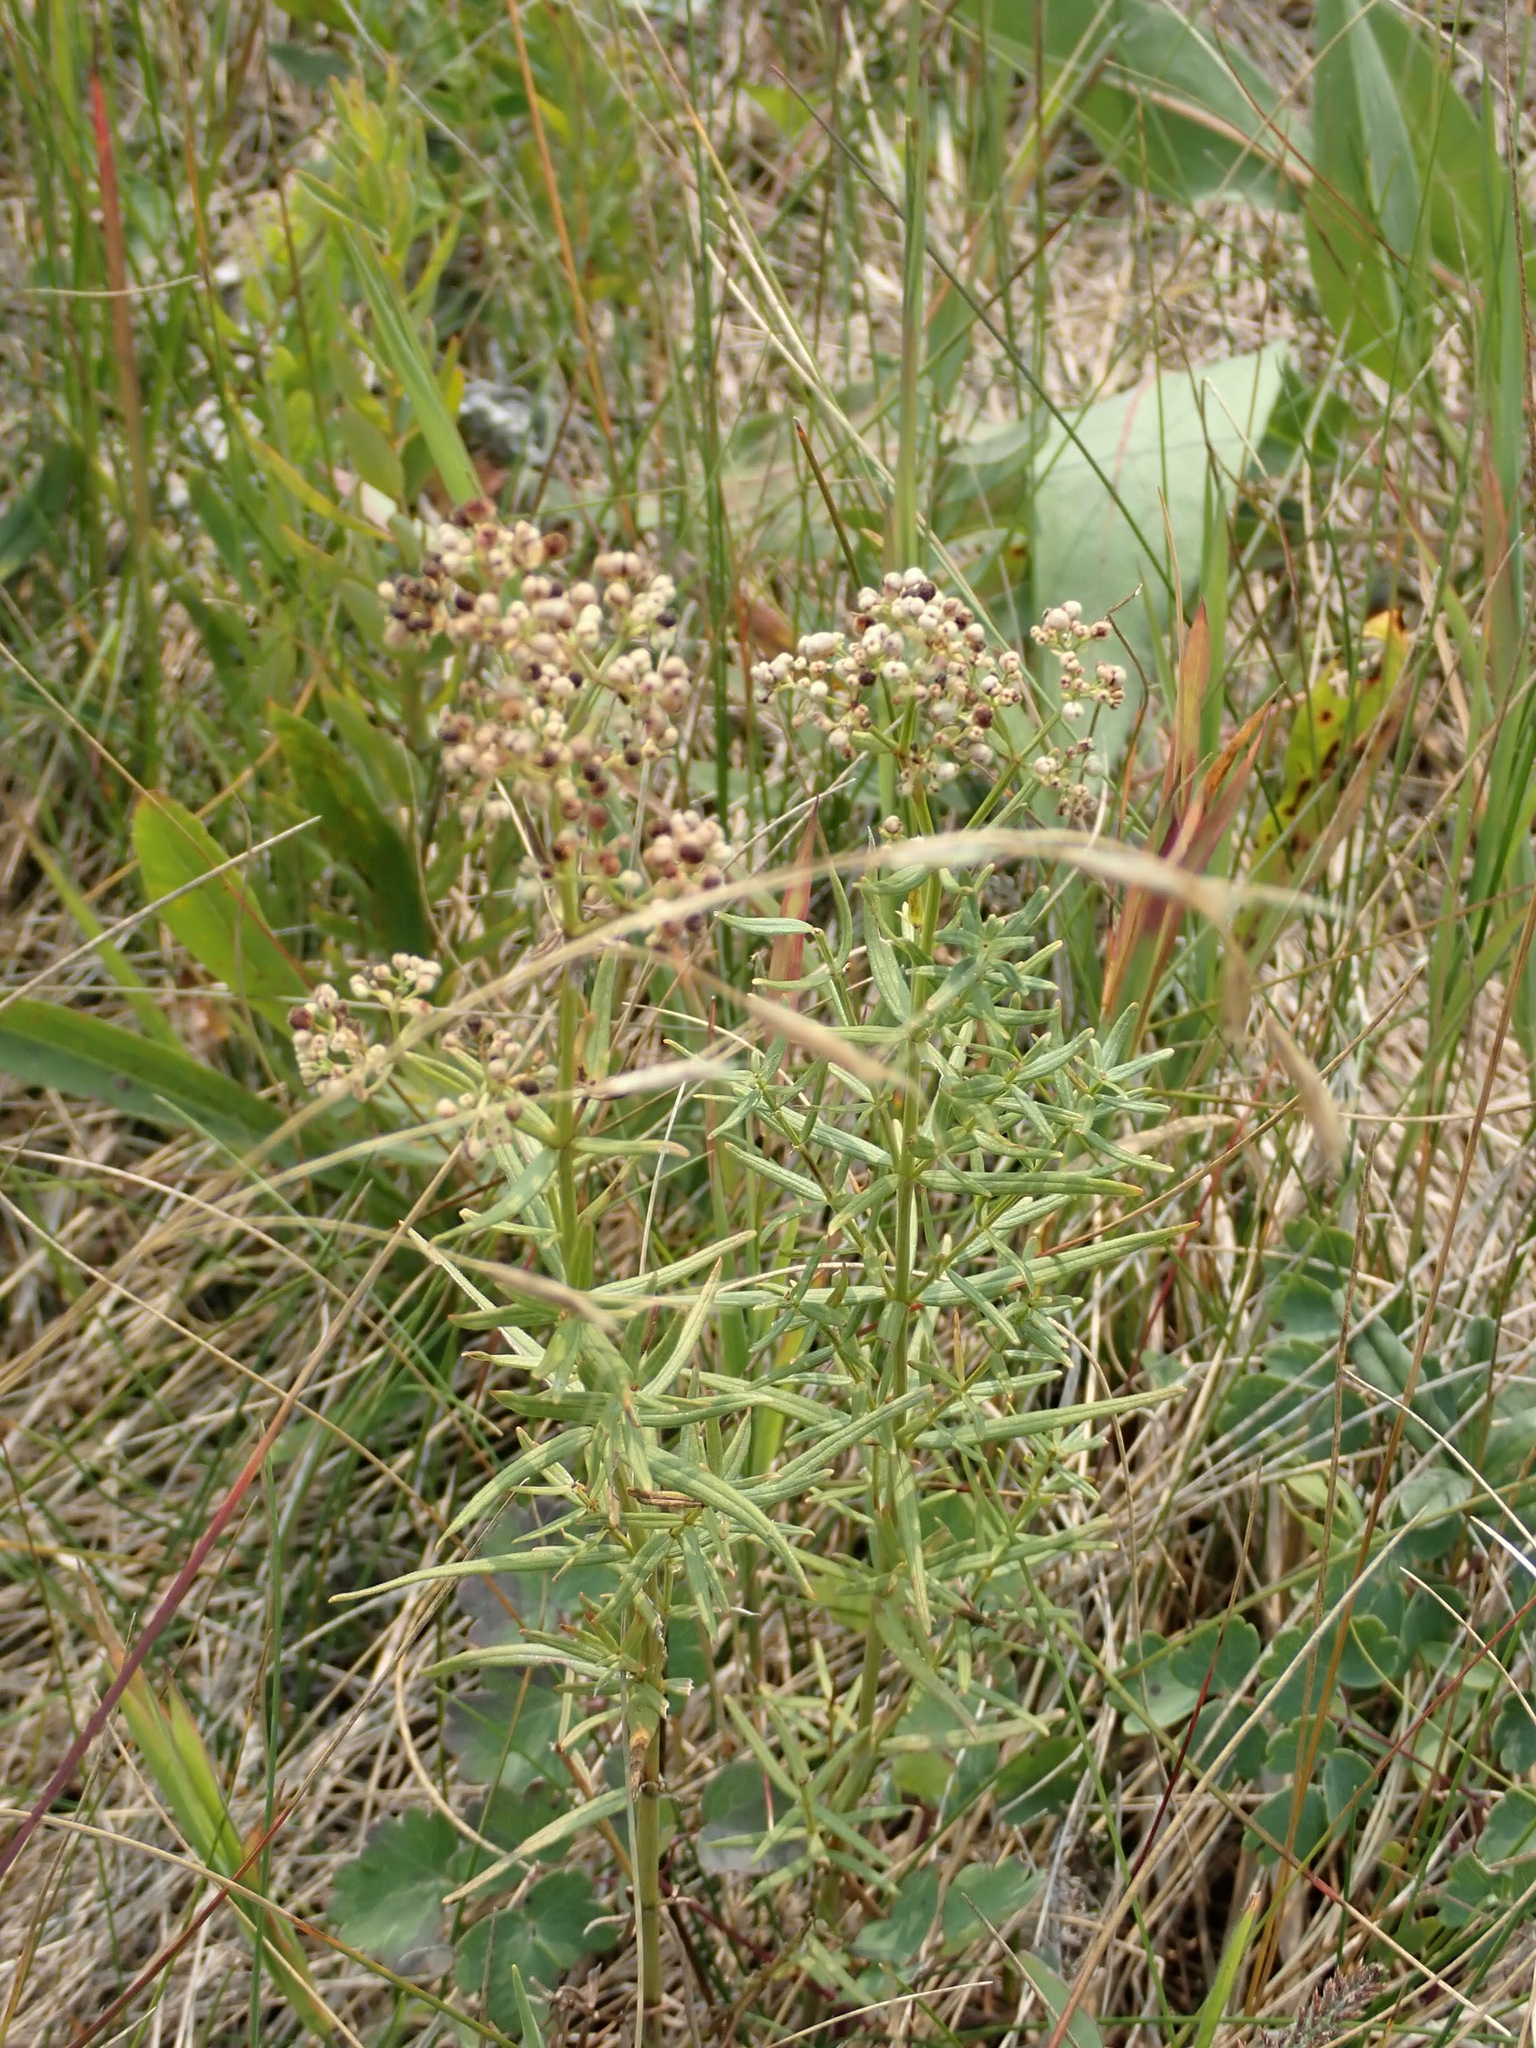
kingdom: Plantae
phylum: Tracheophyta
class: Magnoliopsida
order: Gentianales
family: Rubiaceae
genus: Galium
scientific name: Galium boreale
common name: Northern bedstraw
